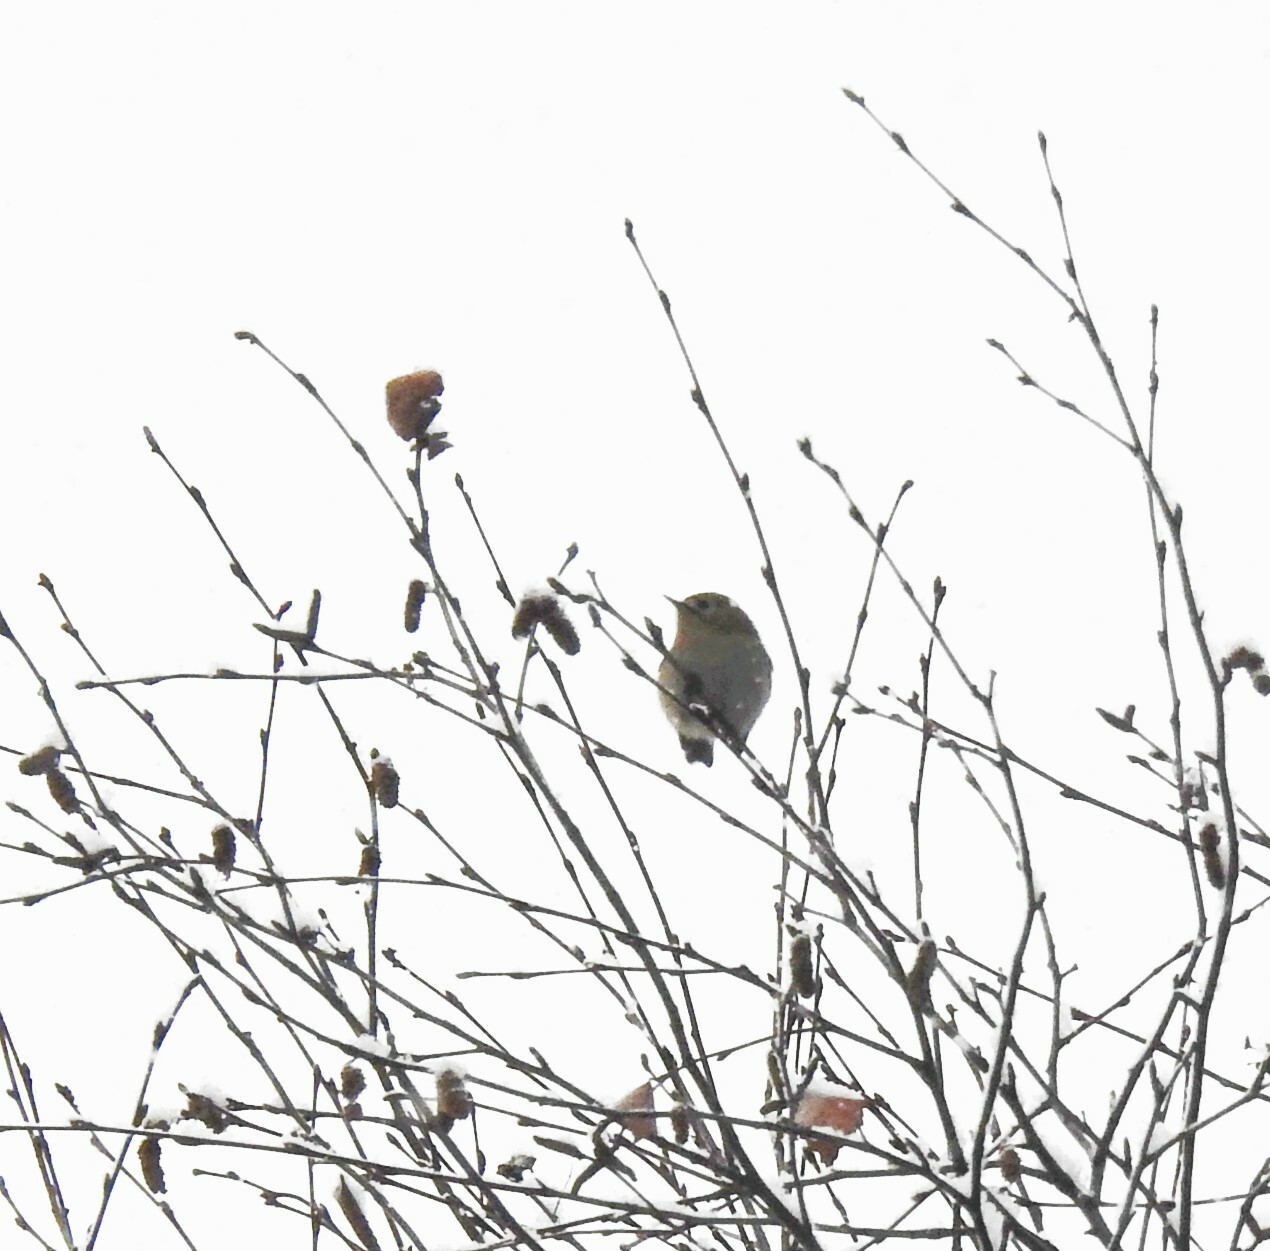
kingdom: Animalia
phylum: Chordata
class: Aves
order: Passeriformes
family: Regulidae
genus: Regulus
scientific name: Regulus regulus
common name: Goldcrest
